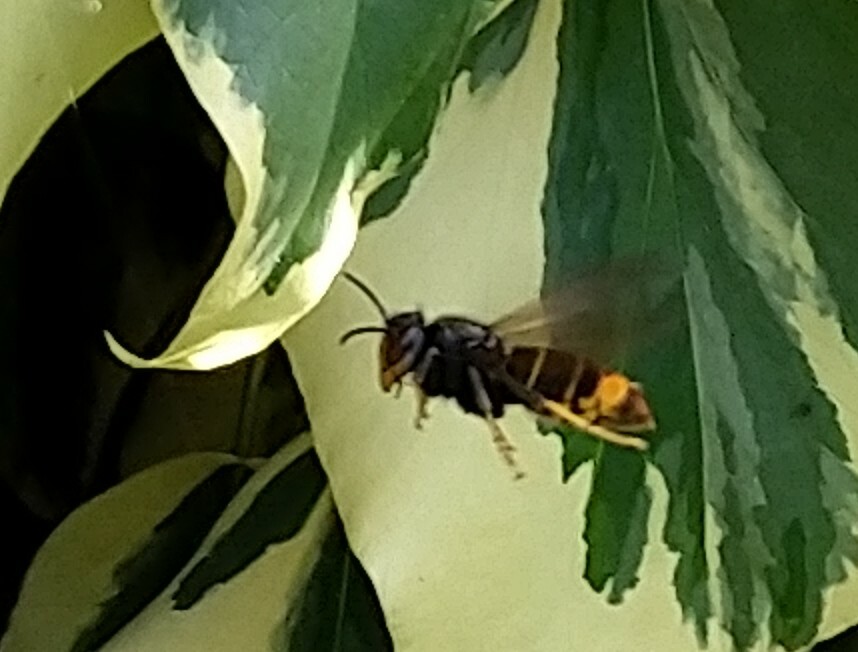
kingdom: Animalia
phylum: Arthropoda
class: Insecta
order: Hymenoptera
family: Vespidae
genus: Vespa
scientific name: Vespa velutina
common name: Asian hornet
